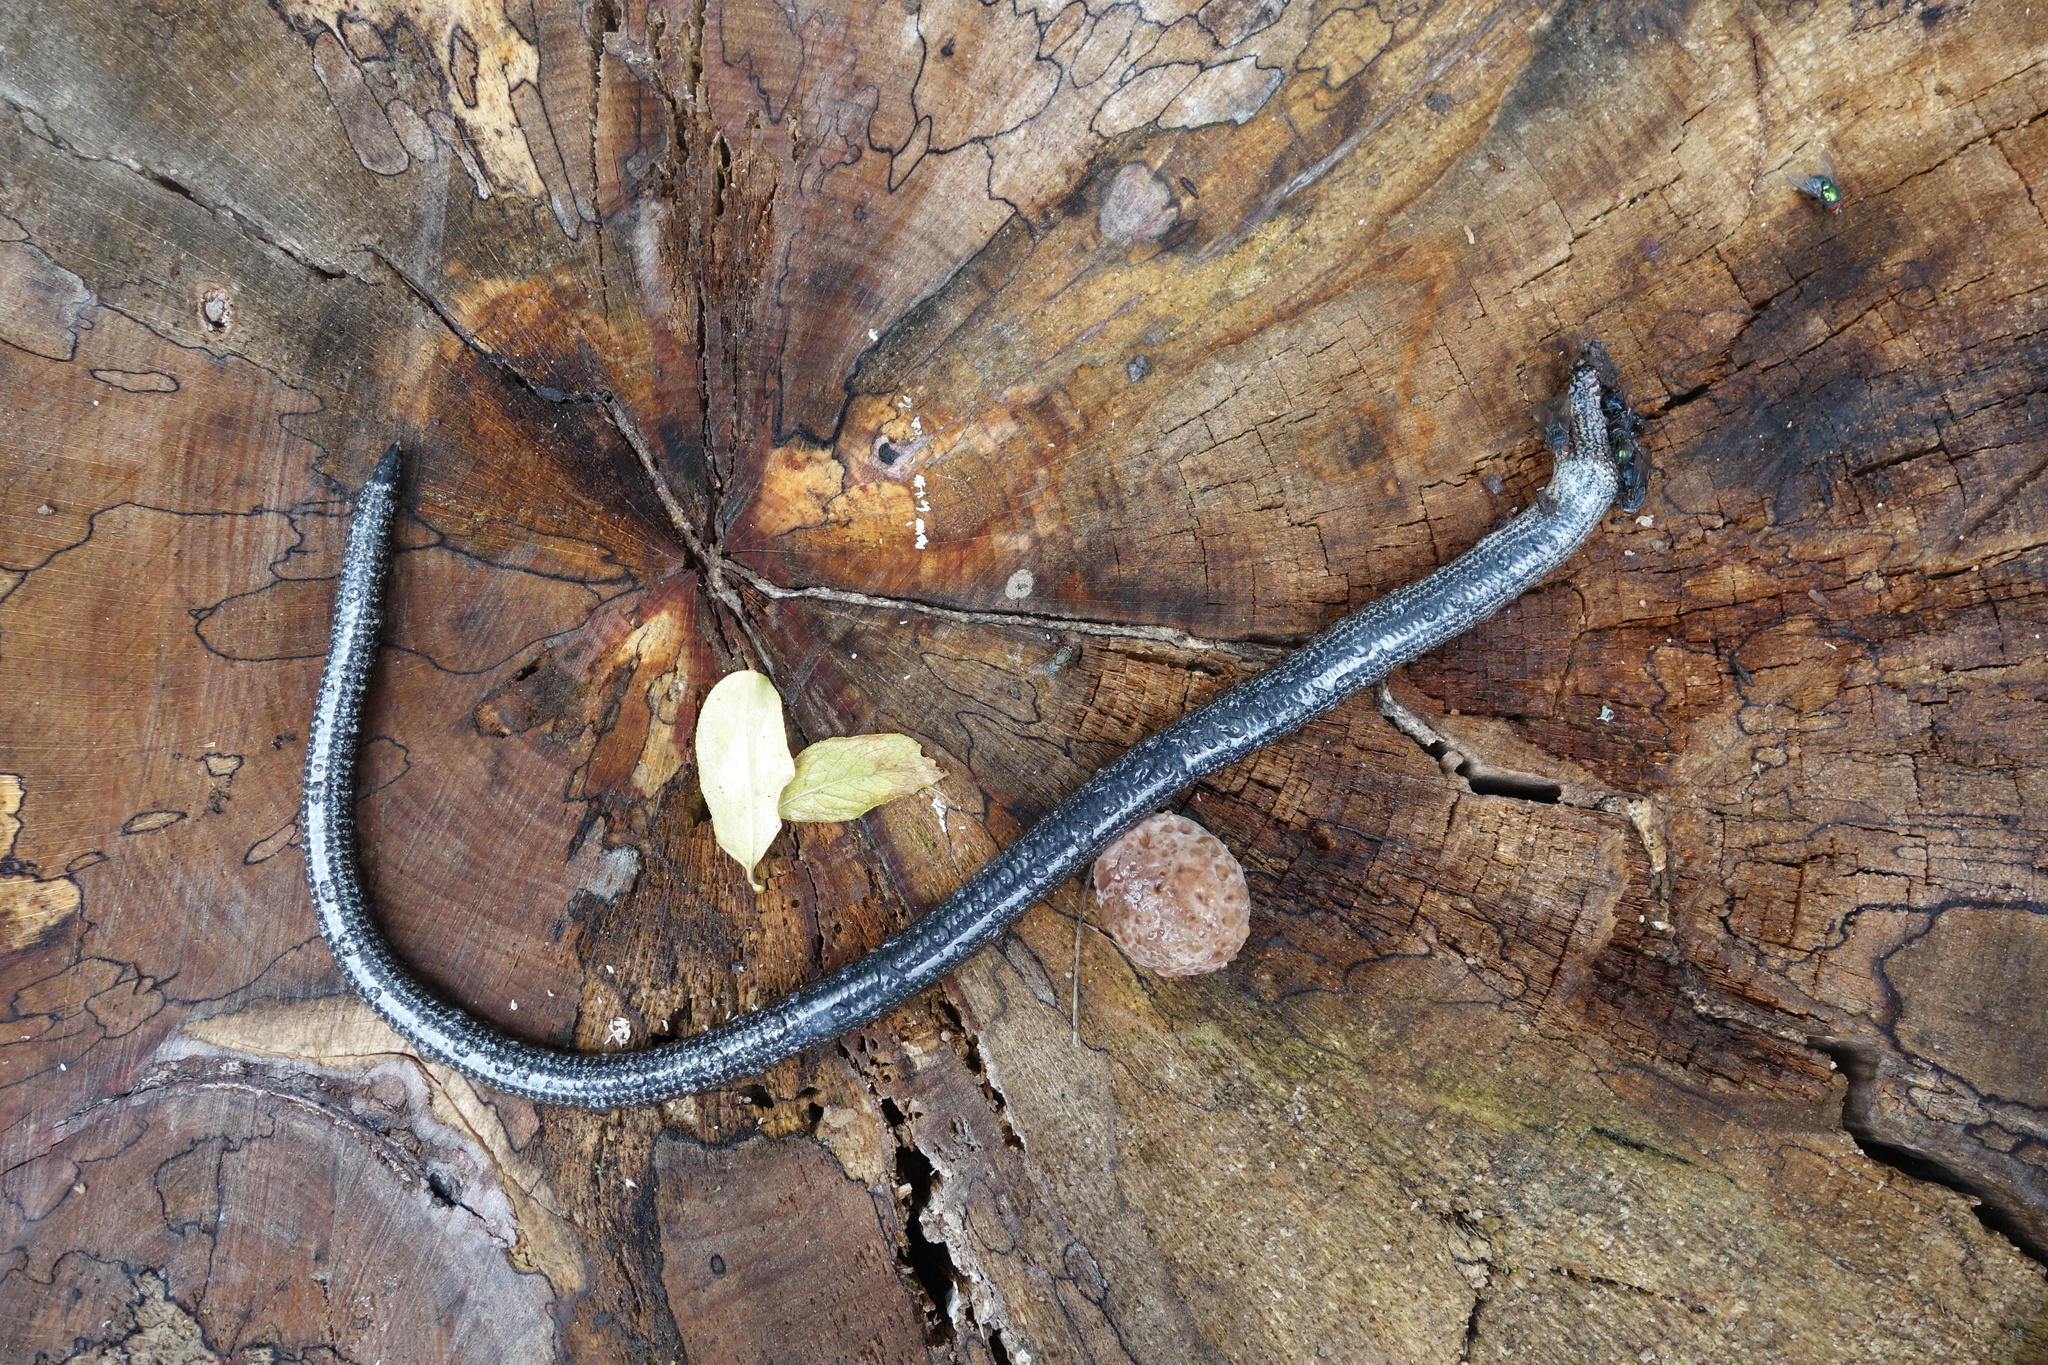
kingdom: Animalia
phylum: Chordata
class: Squamata
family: Anguidae
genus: Anguis
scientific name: Anguis fragilis
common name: Slow worm
